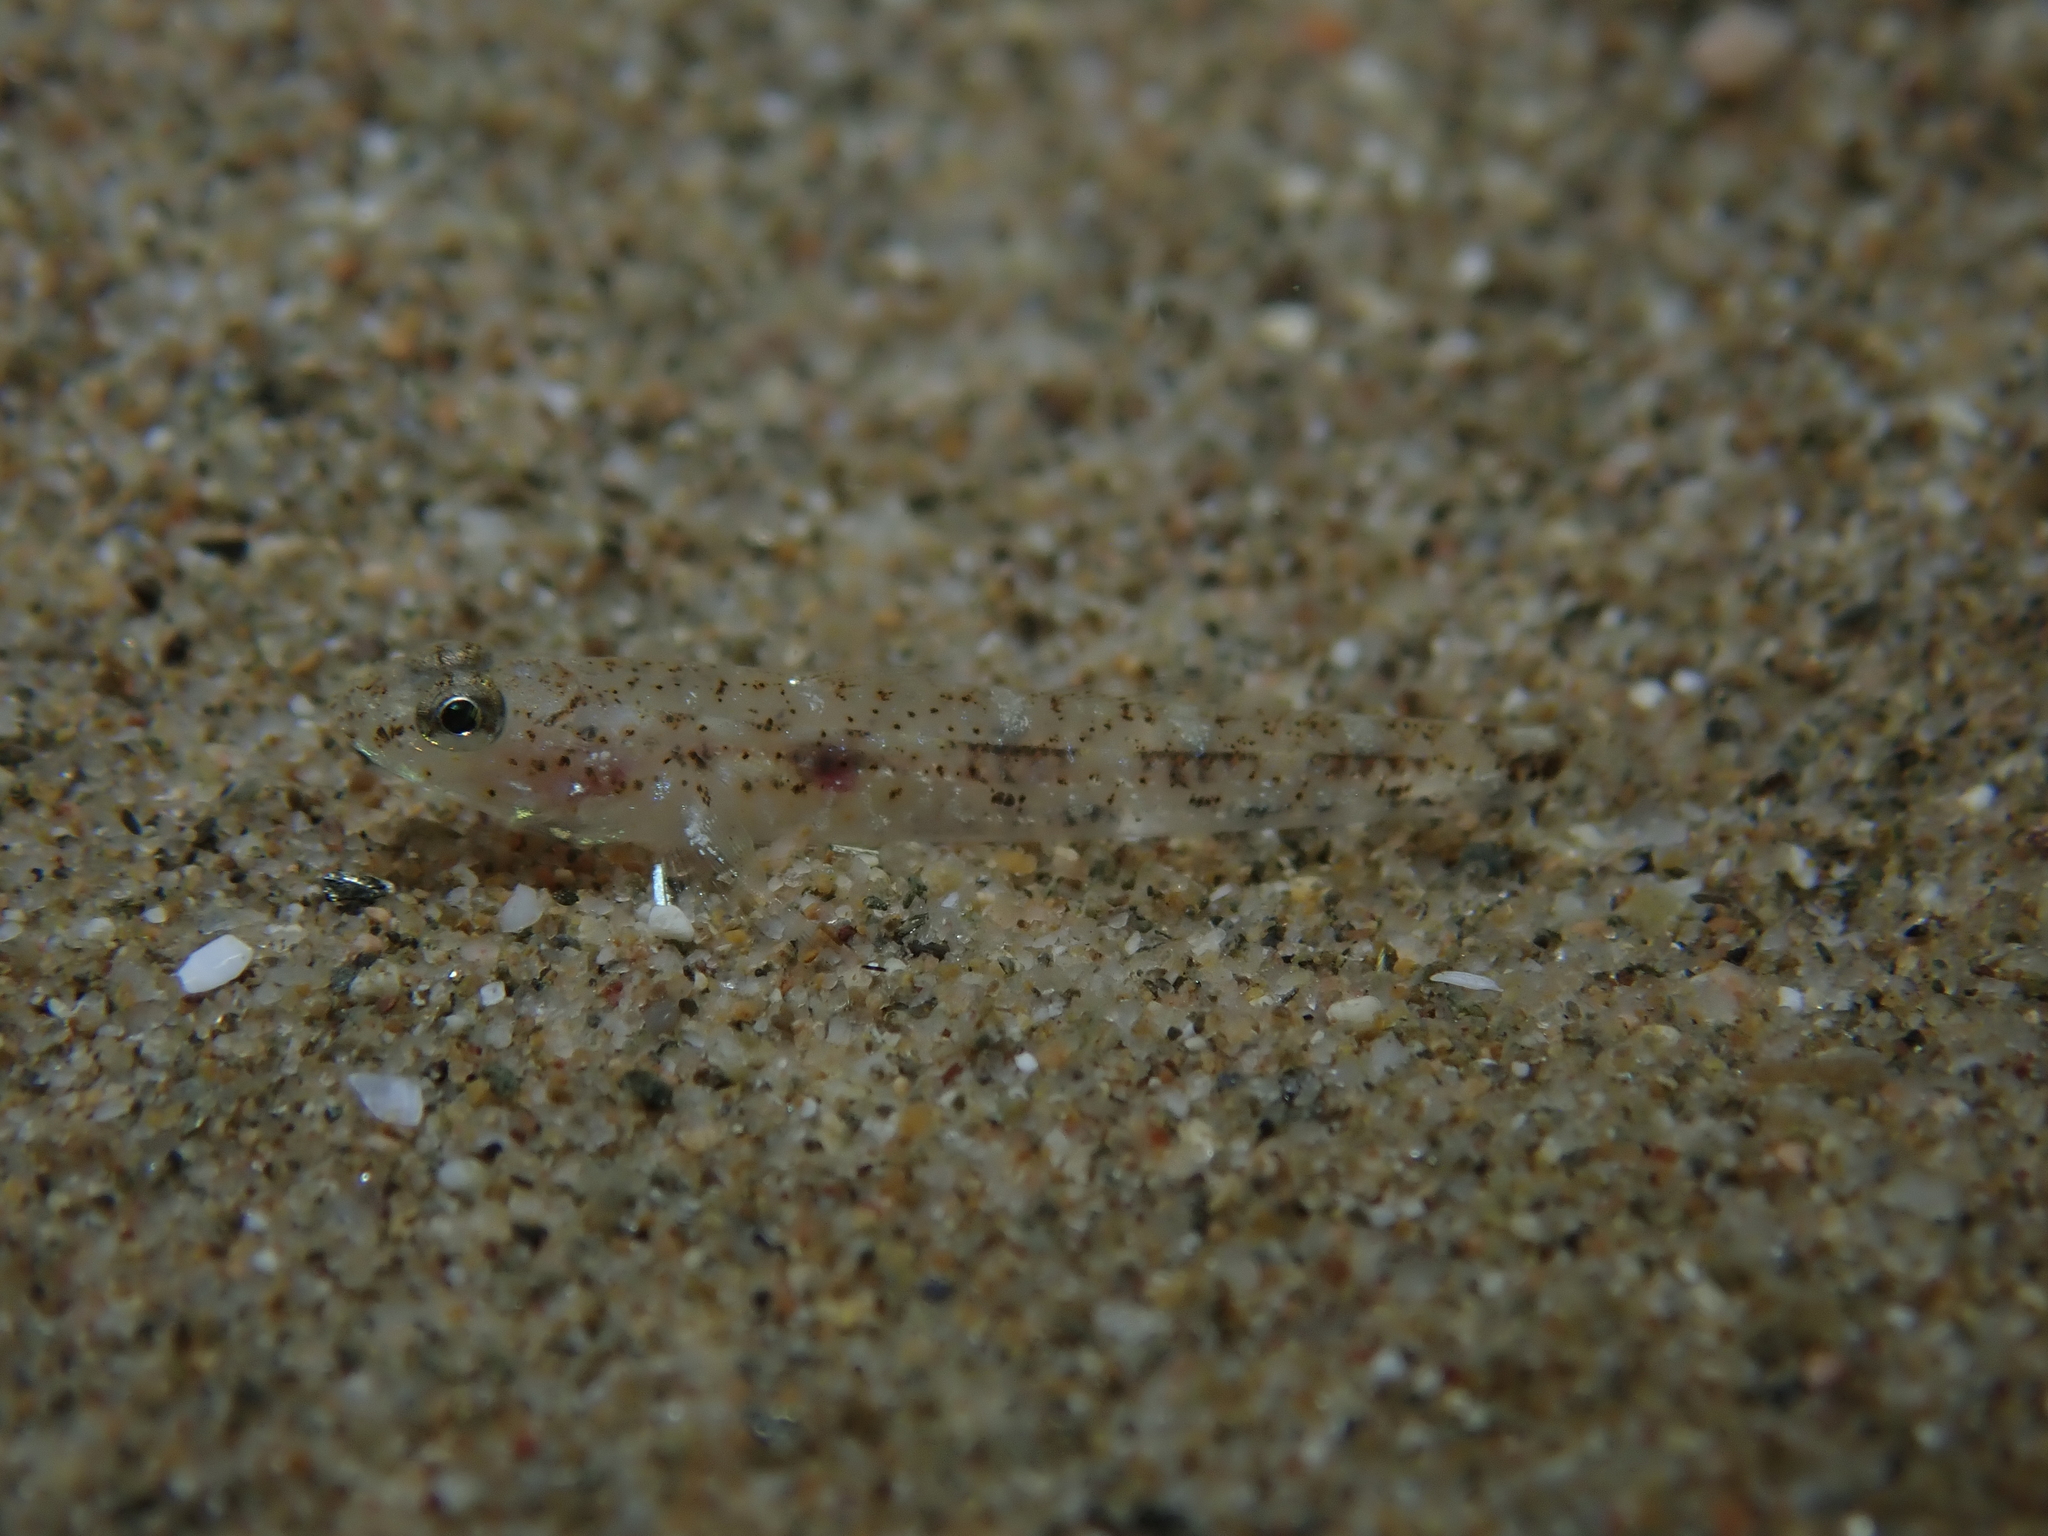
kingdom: Animalia
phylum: Chordata
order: Perciformes
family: Gobiidae
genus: Pomatoschistus
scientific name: Pomatoschistus marmoratus
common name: Marbled goby
